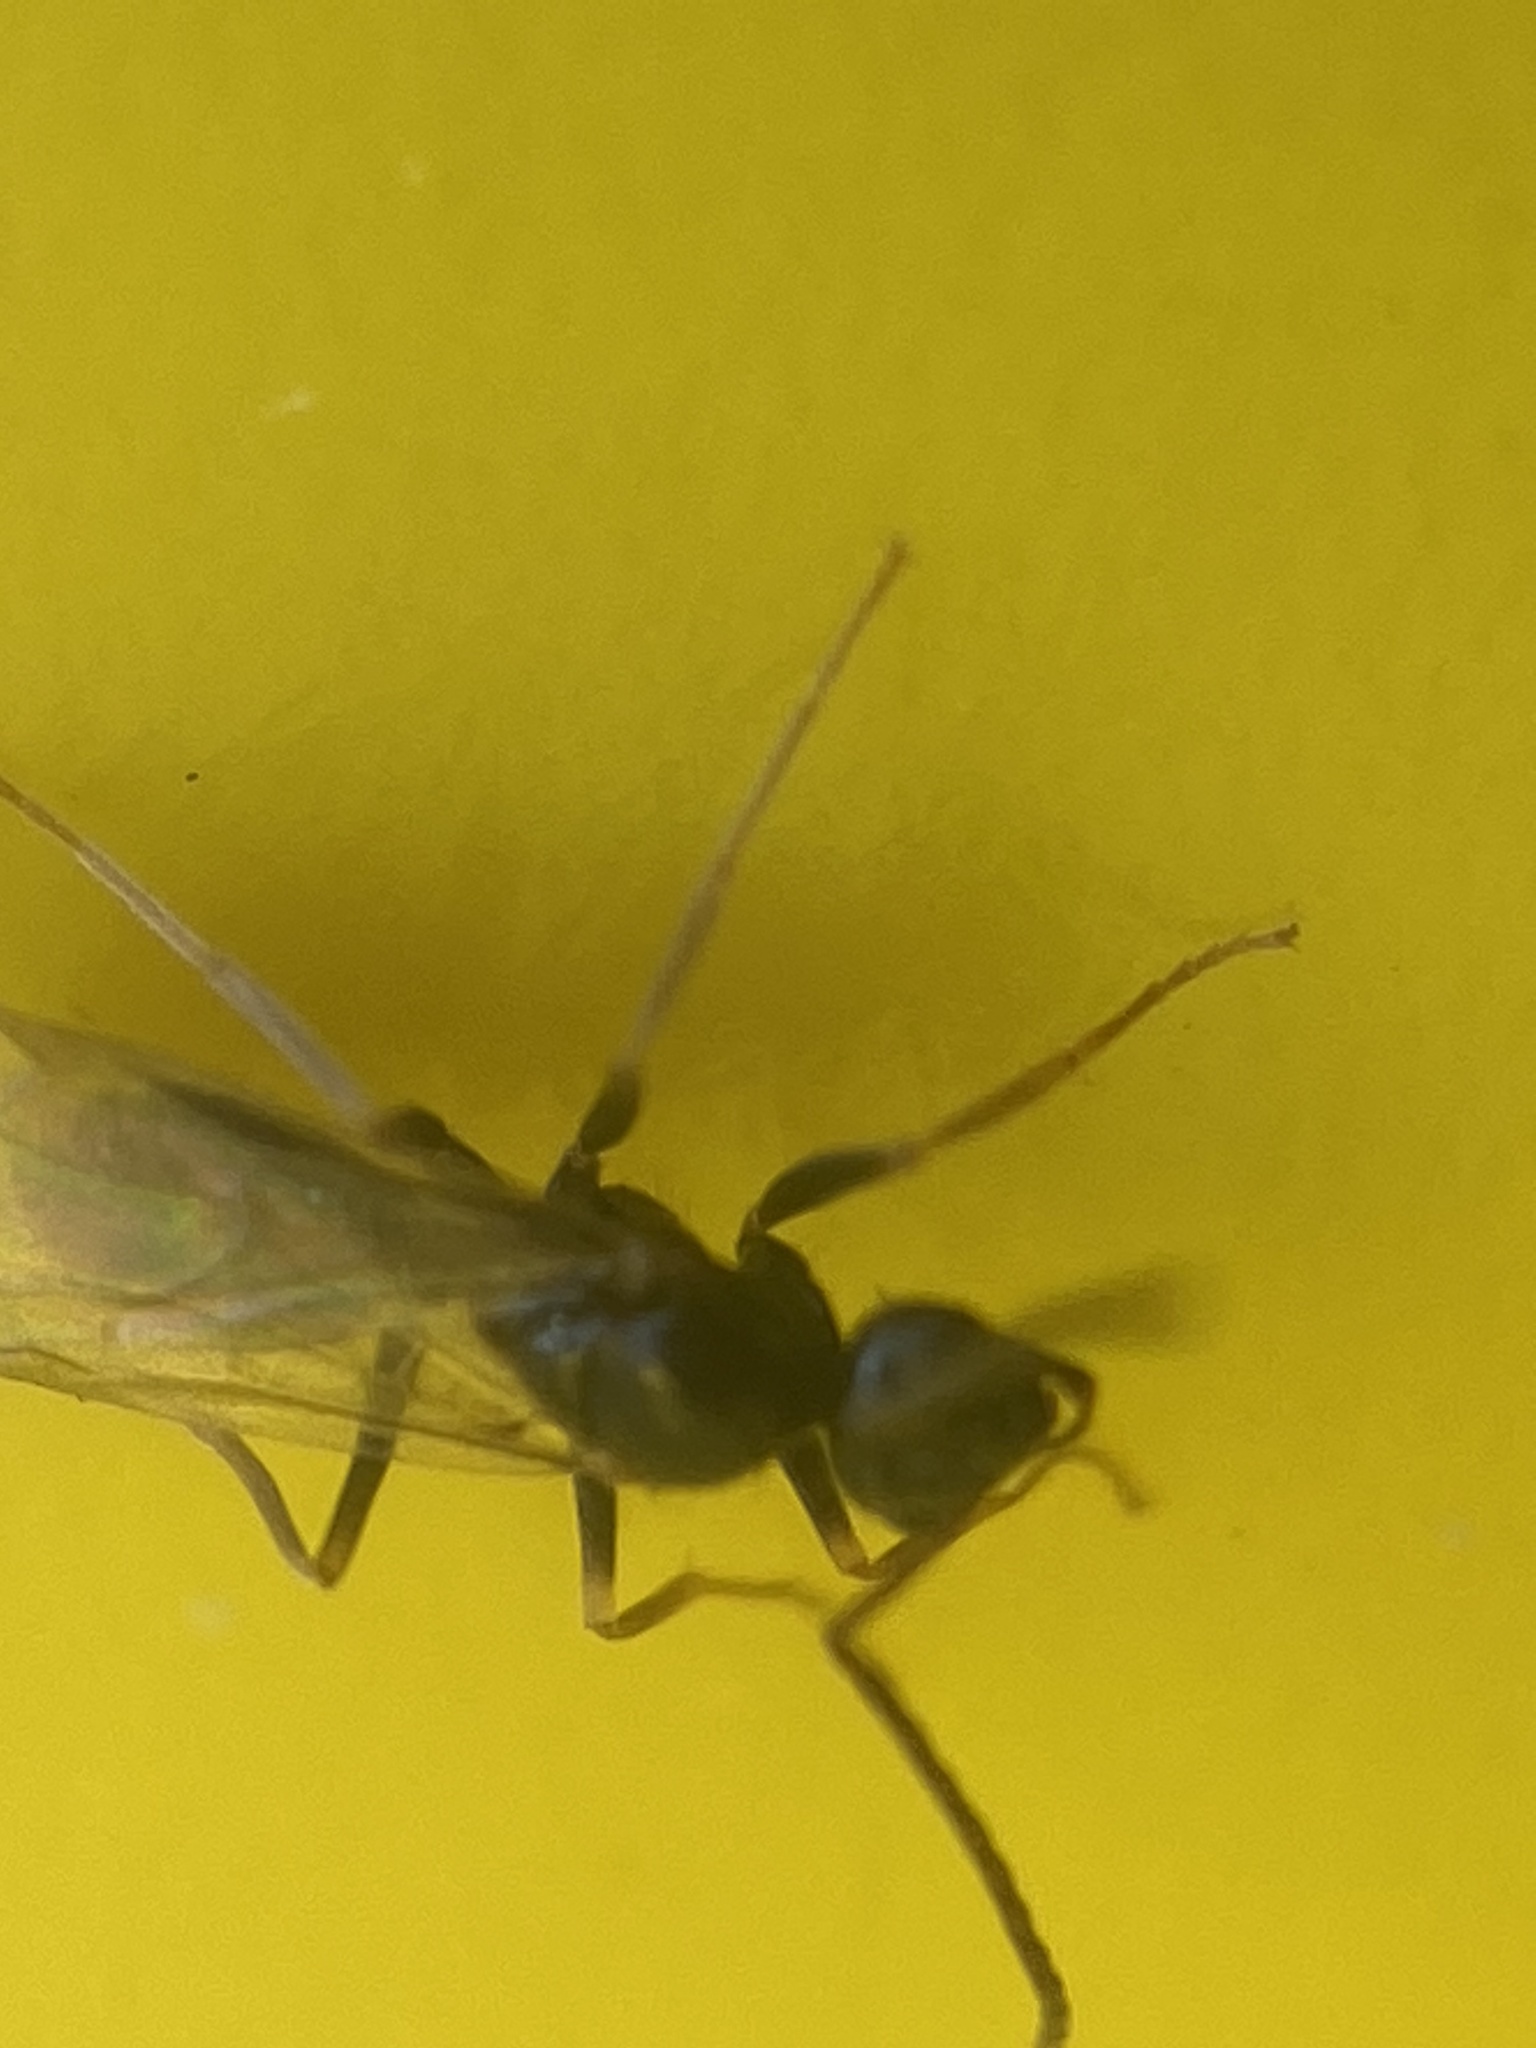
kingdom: Animalia
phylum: Arthropoda
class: Insecta
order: Hymenoptera
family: Formicidae
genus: Prenolepis
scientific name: Prenolepis imparis
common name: Small honey ant
